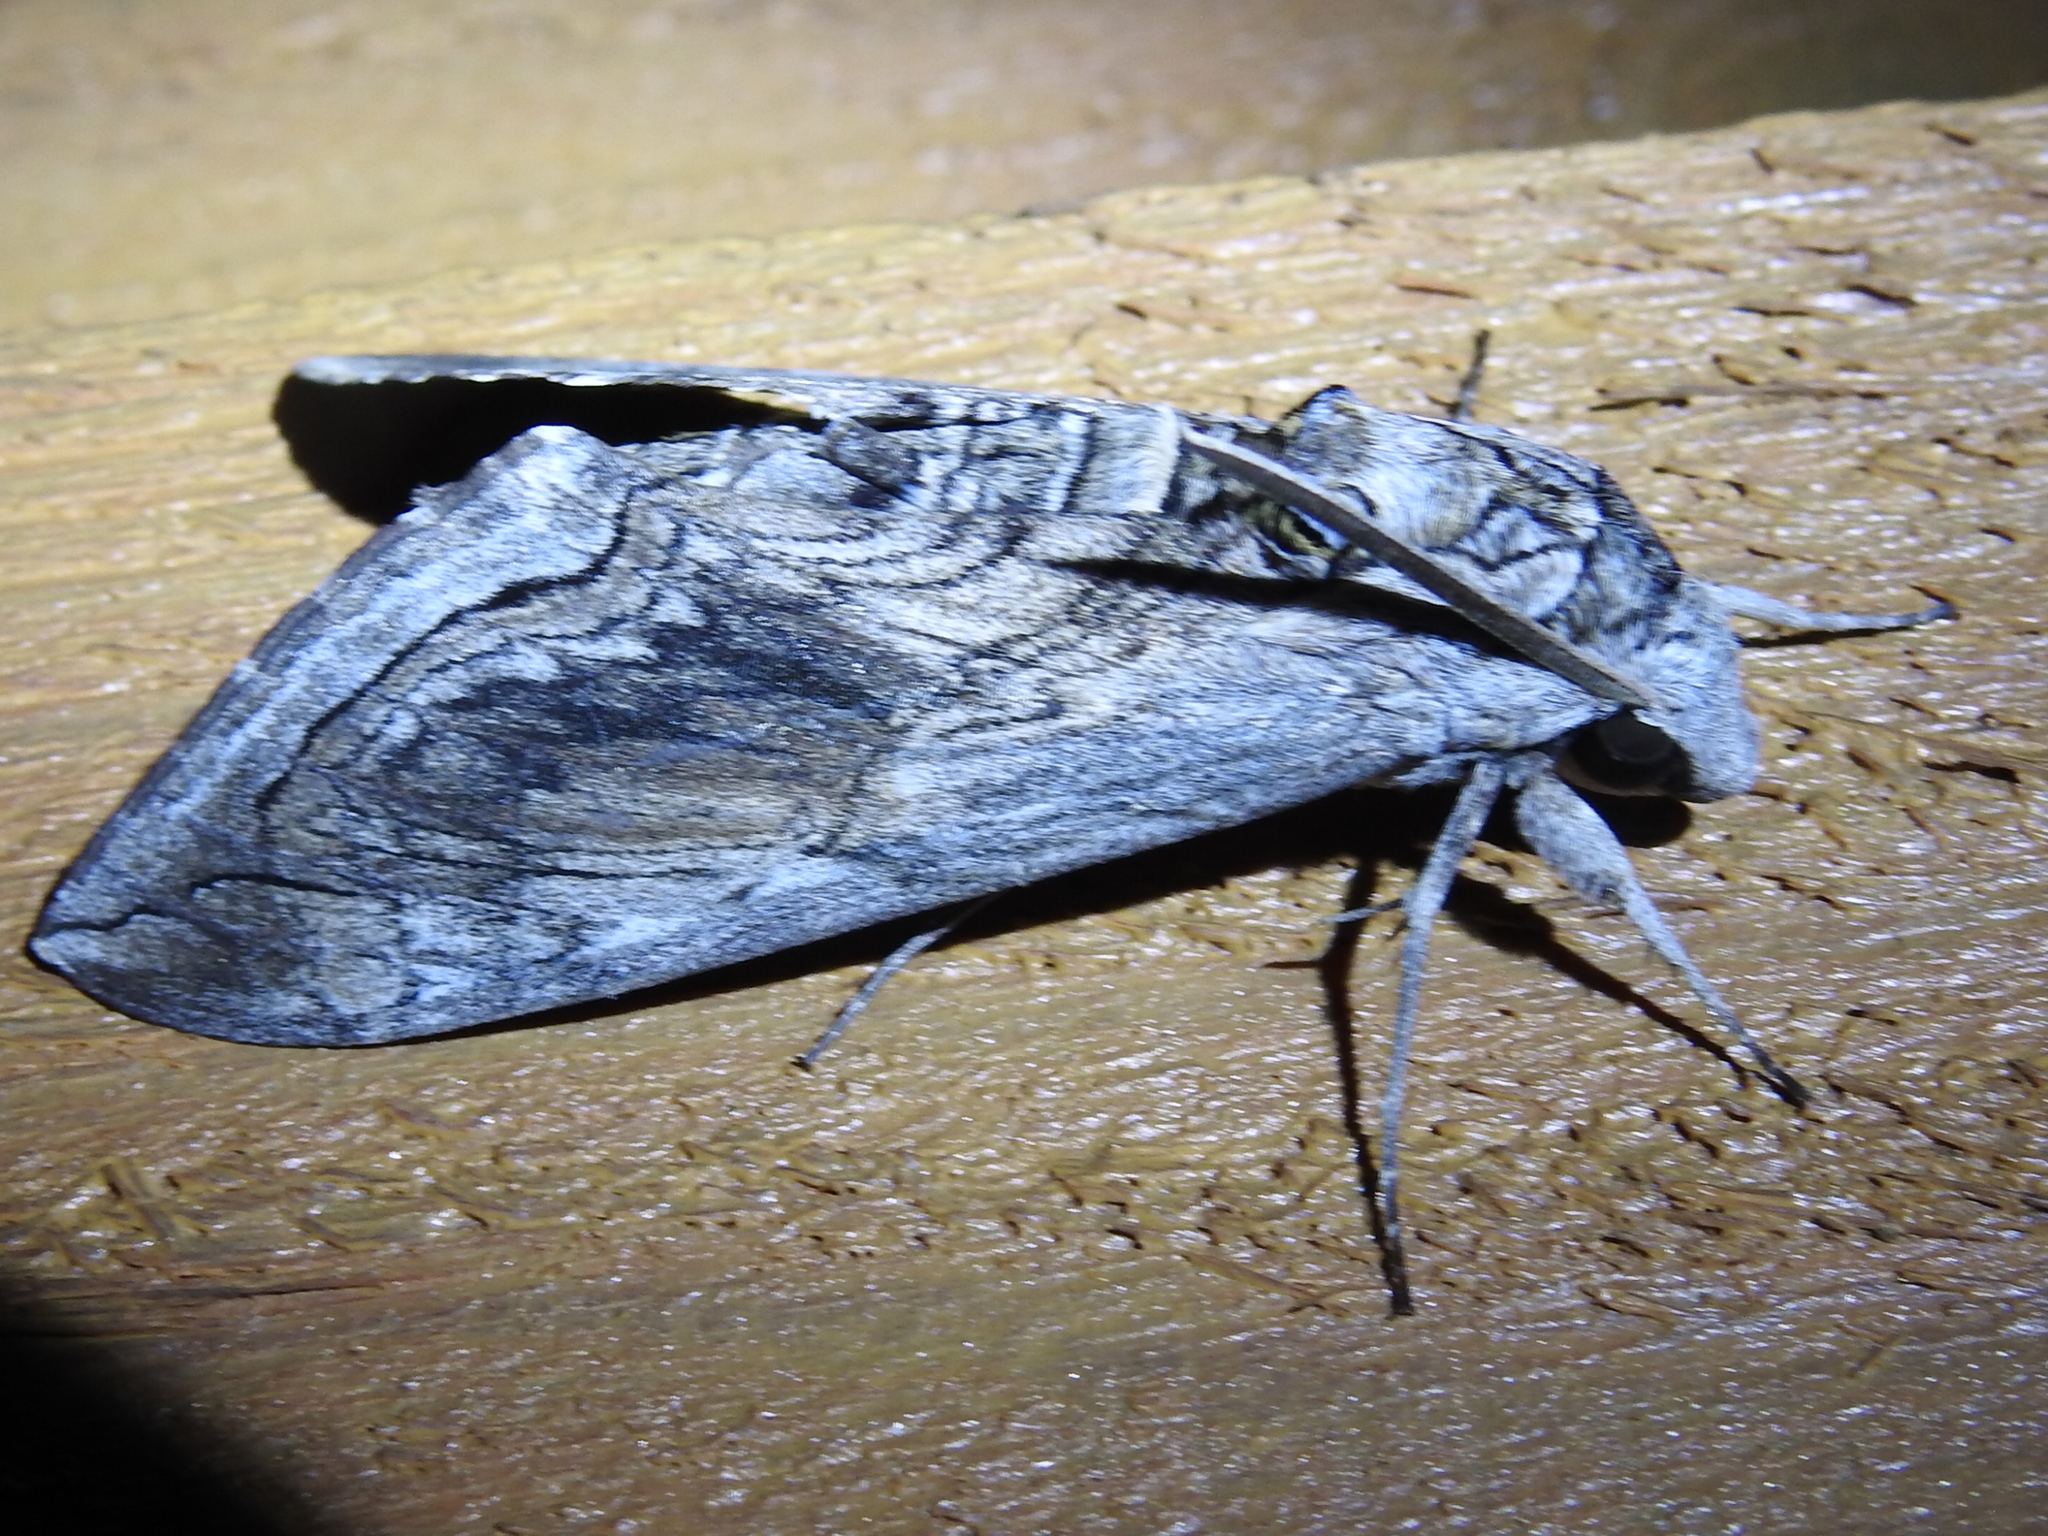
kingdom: Animalia
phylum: Arthropoda
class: Insecta
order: Lepidoptera
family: Sphingidae
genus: Manduca
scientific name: Manduca quinquemaculatus
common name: Five-spotted hawk-moth
